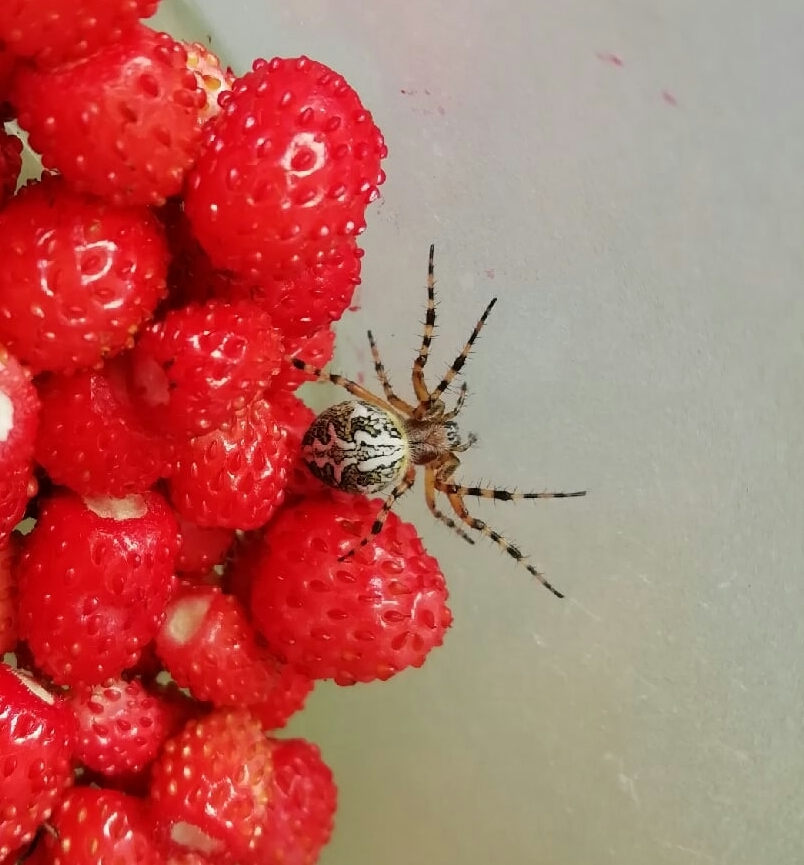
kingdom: Animalia
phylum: Arthropoda
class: Arachnida
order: Araneae
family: Araneidae
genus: Aculepeira
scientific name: Aculepeira ceropegia
